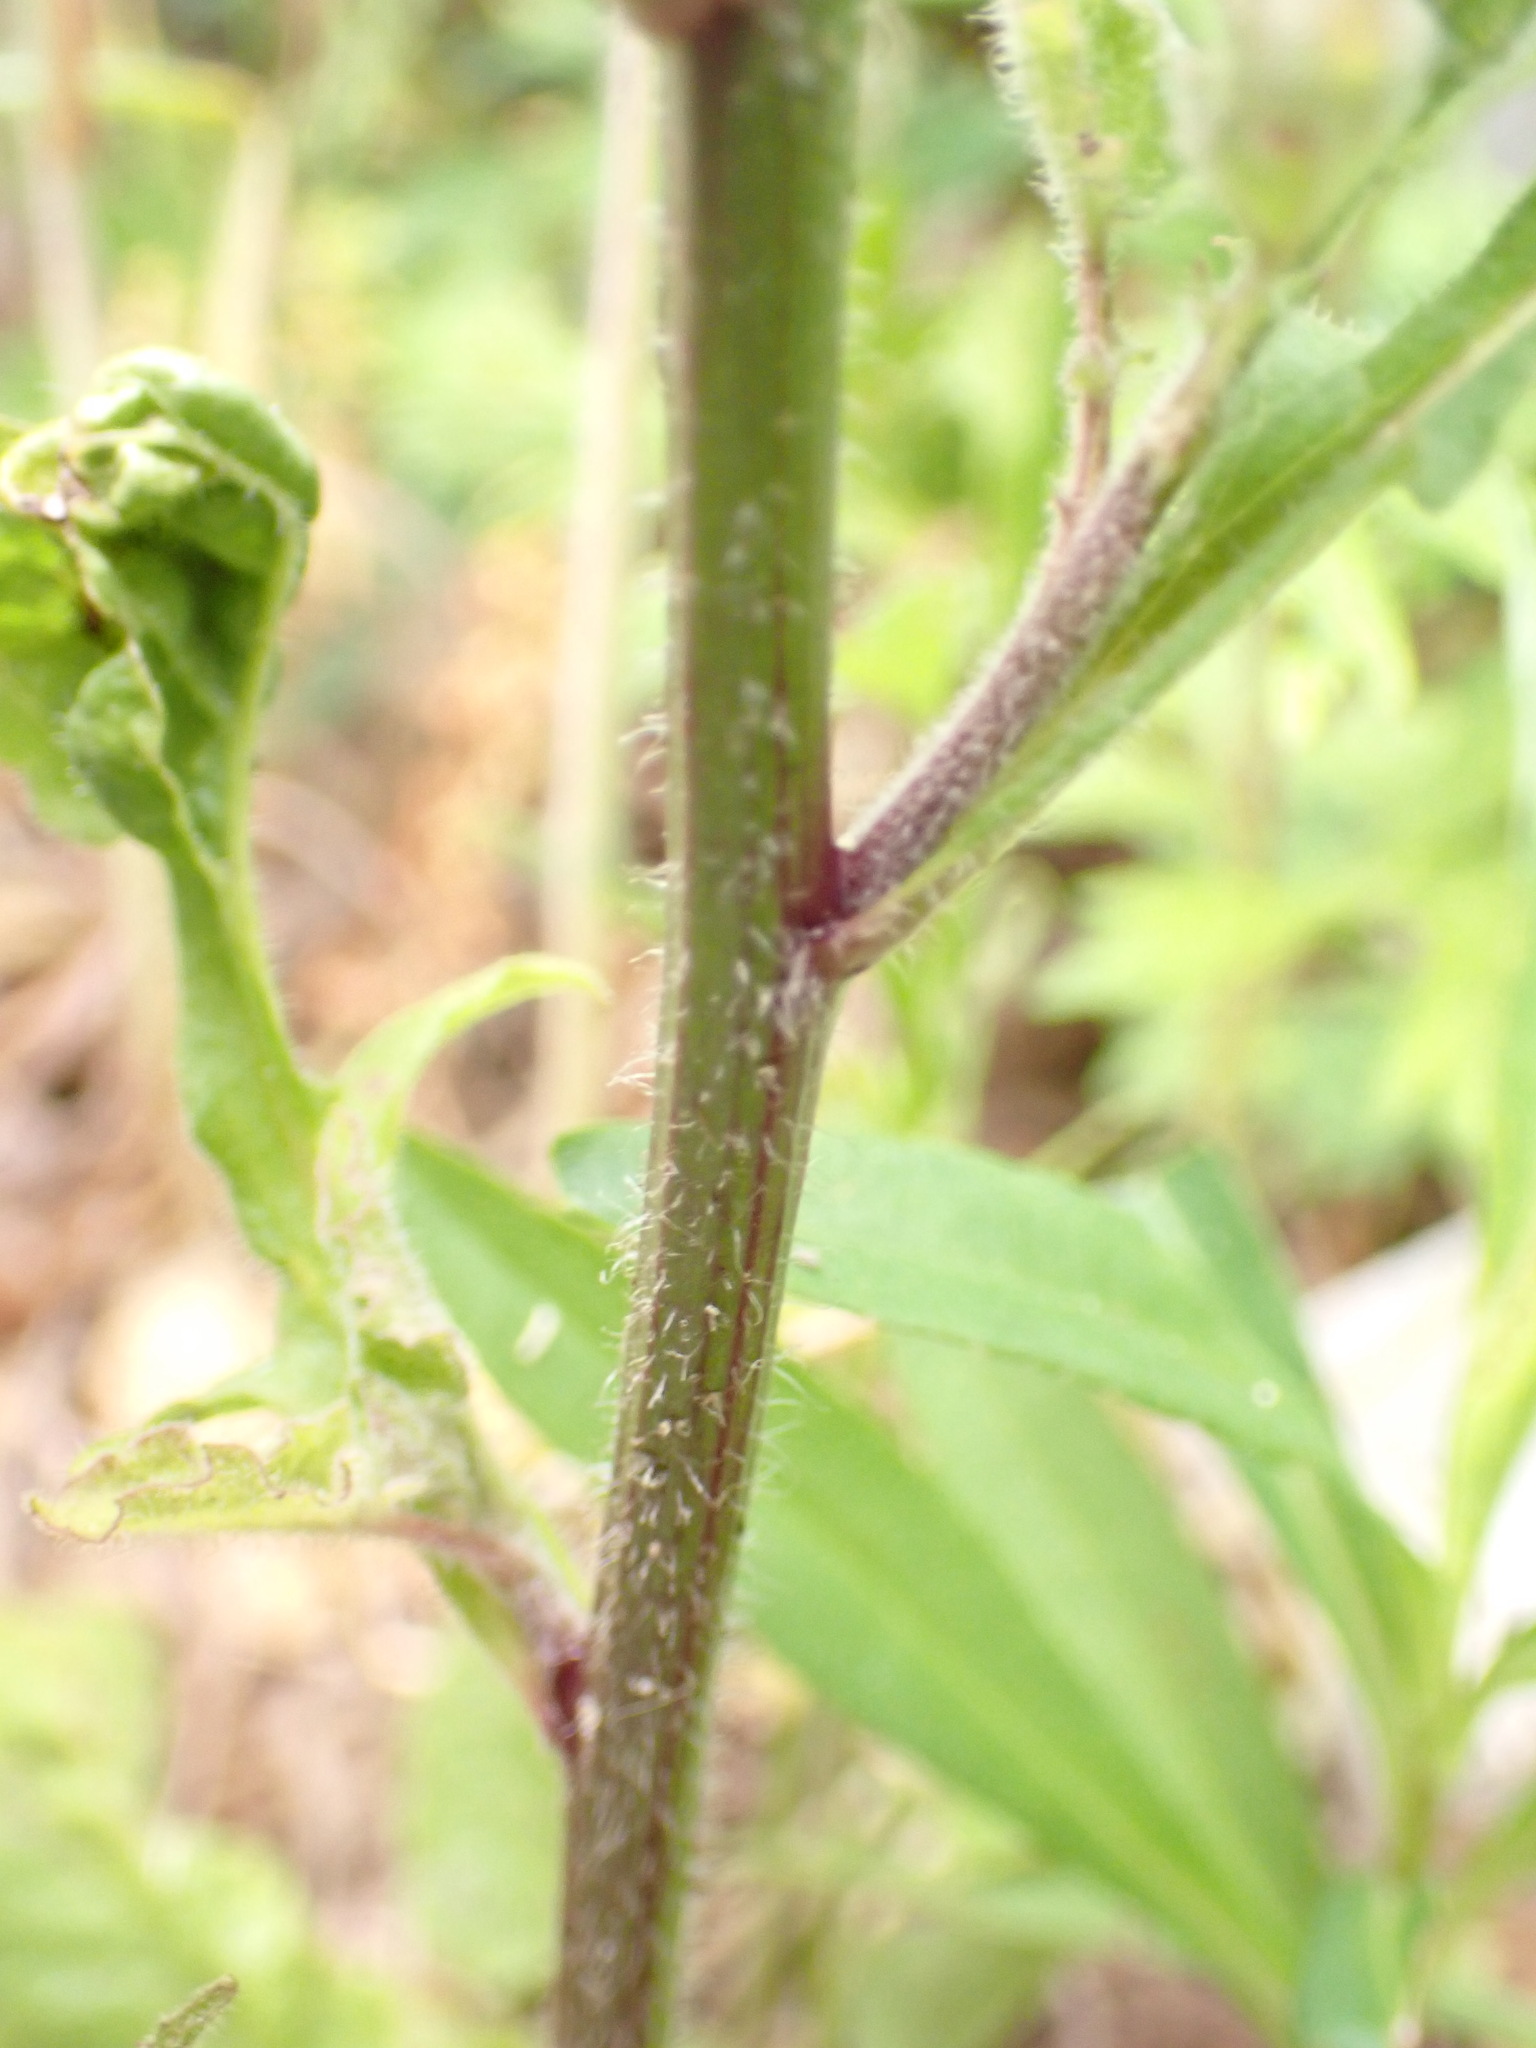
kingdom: Plantae
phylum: Tracheophyta
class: Magnoliopsida
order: Asterales
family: Asteraceae
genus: Lapsana
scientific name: Lapsana communis
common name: Nipplewort
